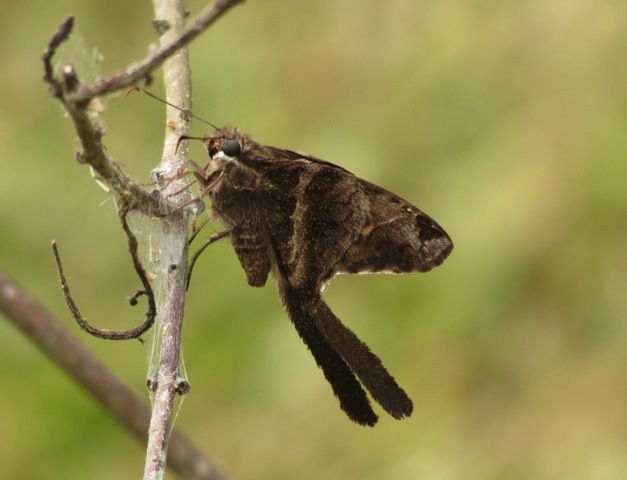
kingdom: Animalia
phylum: Arthropoda
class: Insecta
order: Lepidoptera
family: Hesperiidae
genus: Chioides
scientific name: Chioides catillus
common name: Silverbanded skipper
